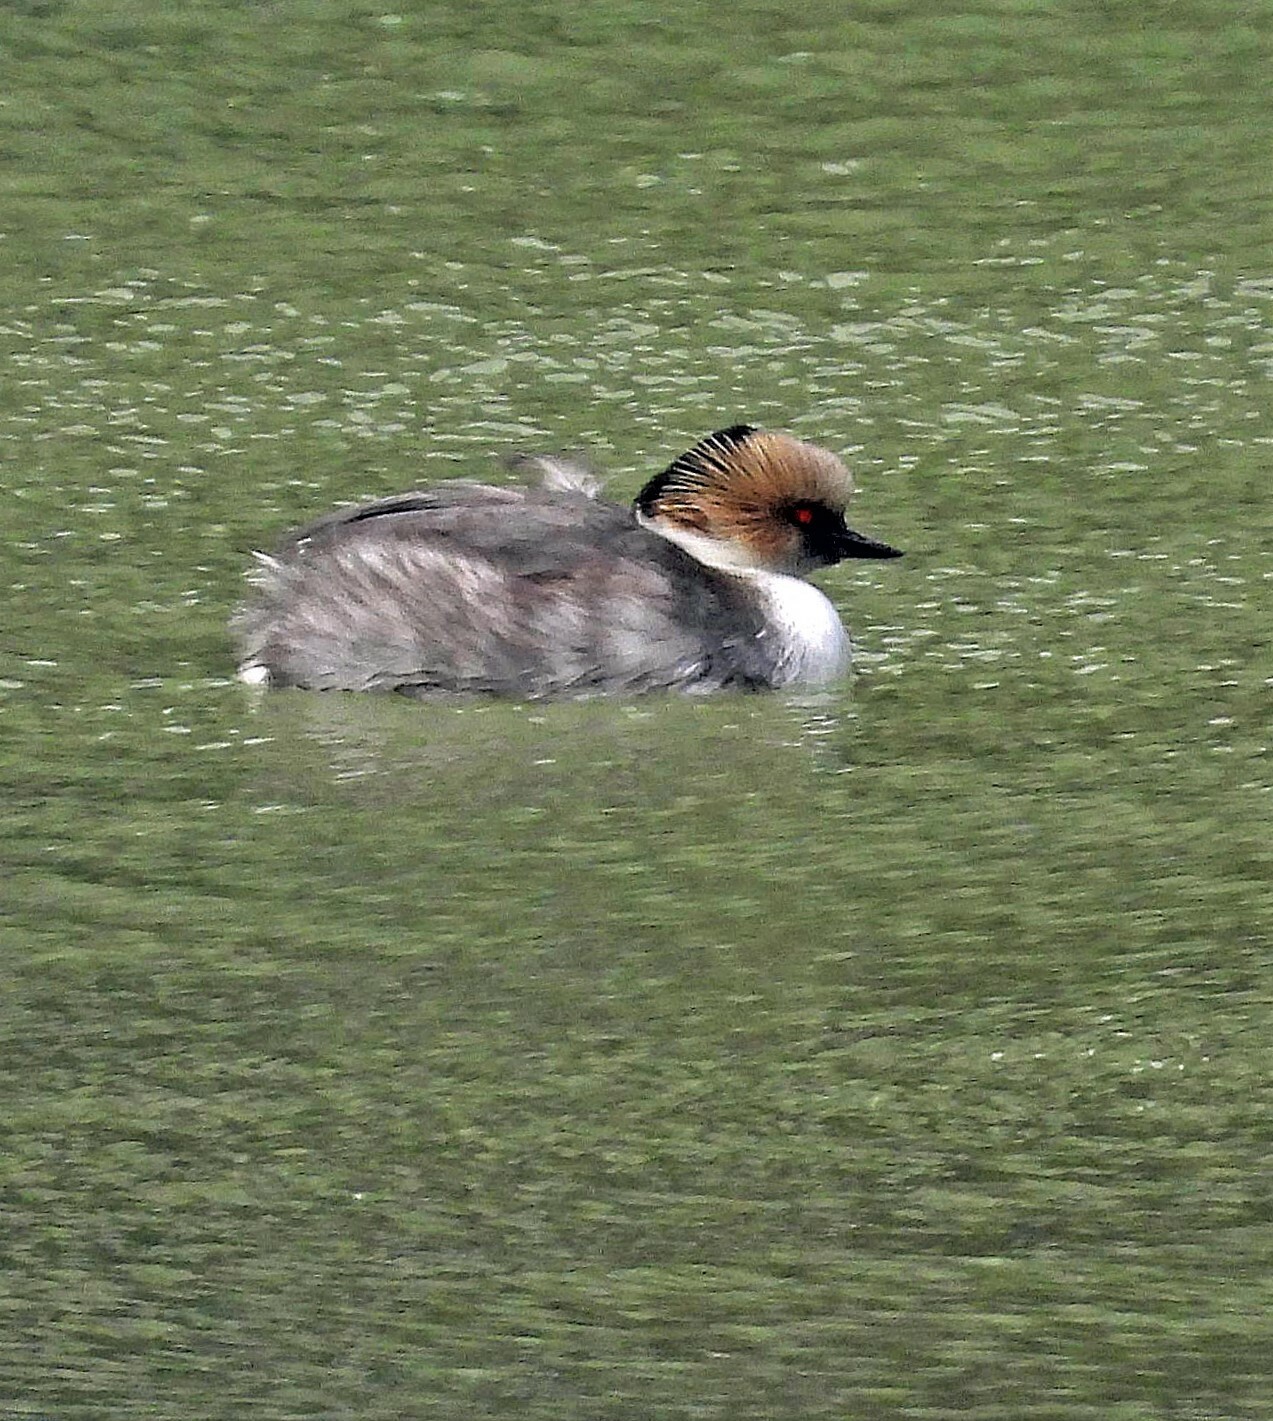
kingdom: Animalia
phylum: Chordata
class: Aves
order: Podicipediformes
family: Podicipedidae
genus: Podiceps
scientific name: Podiceps occipitalis
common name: Silvery grebe
